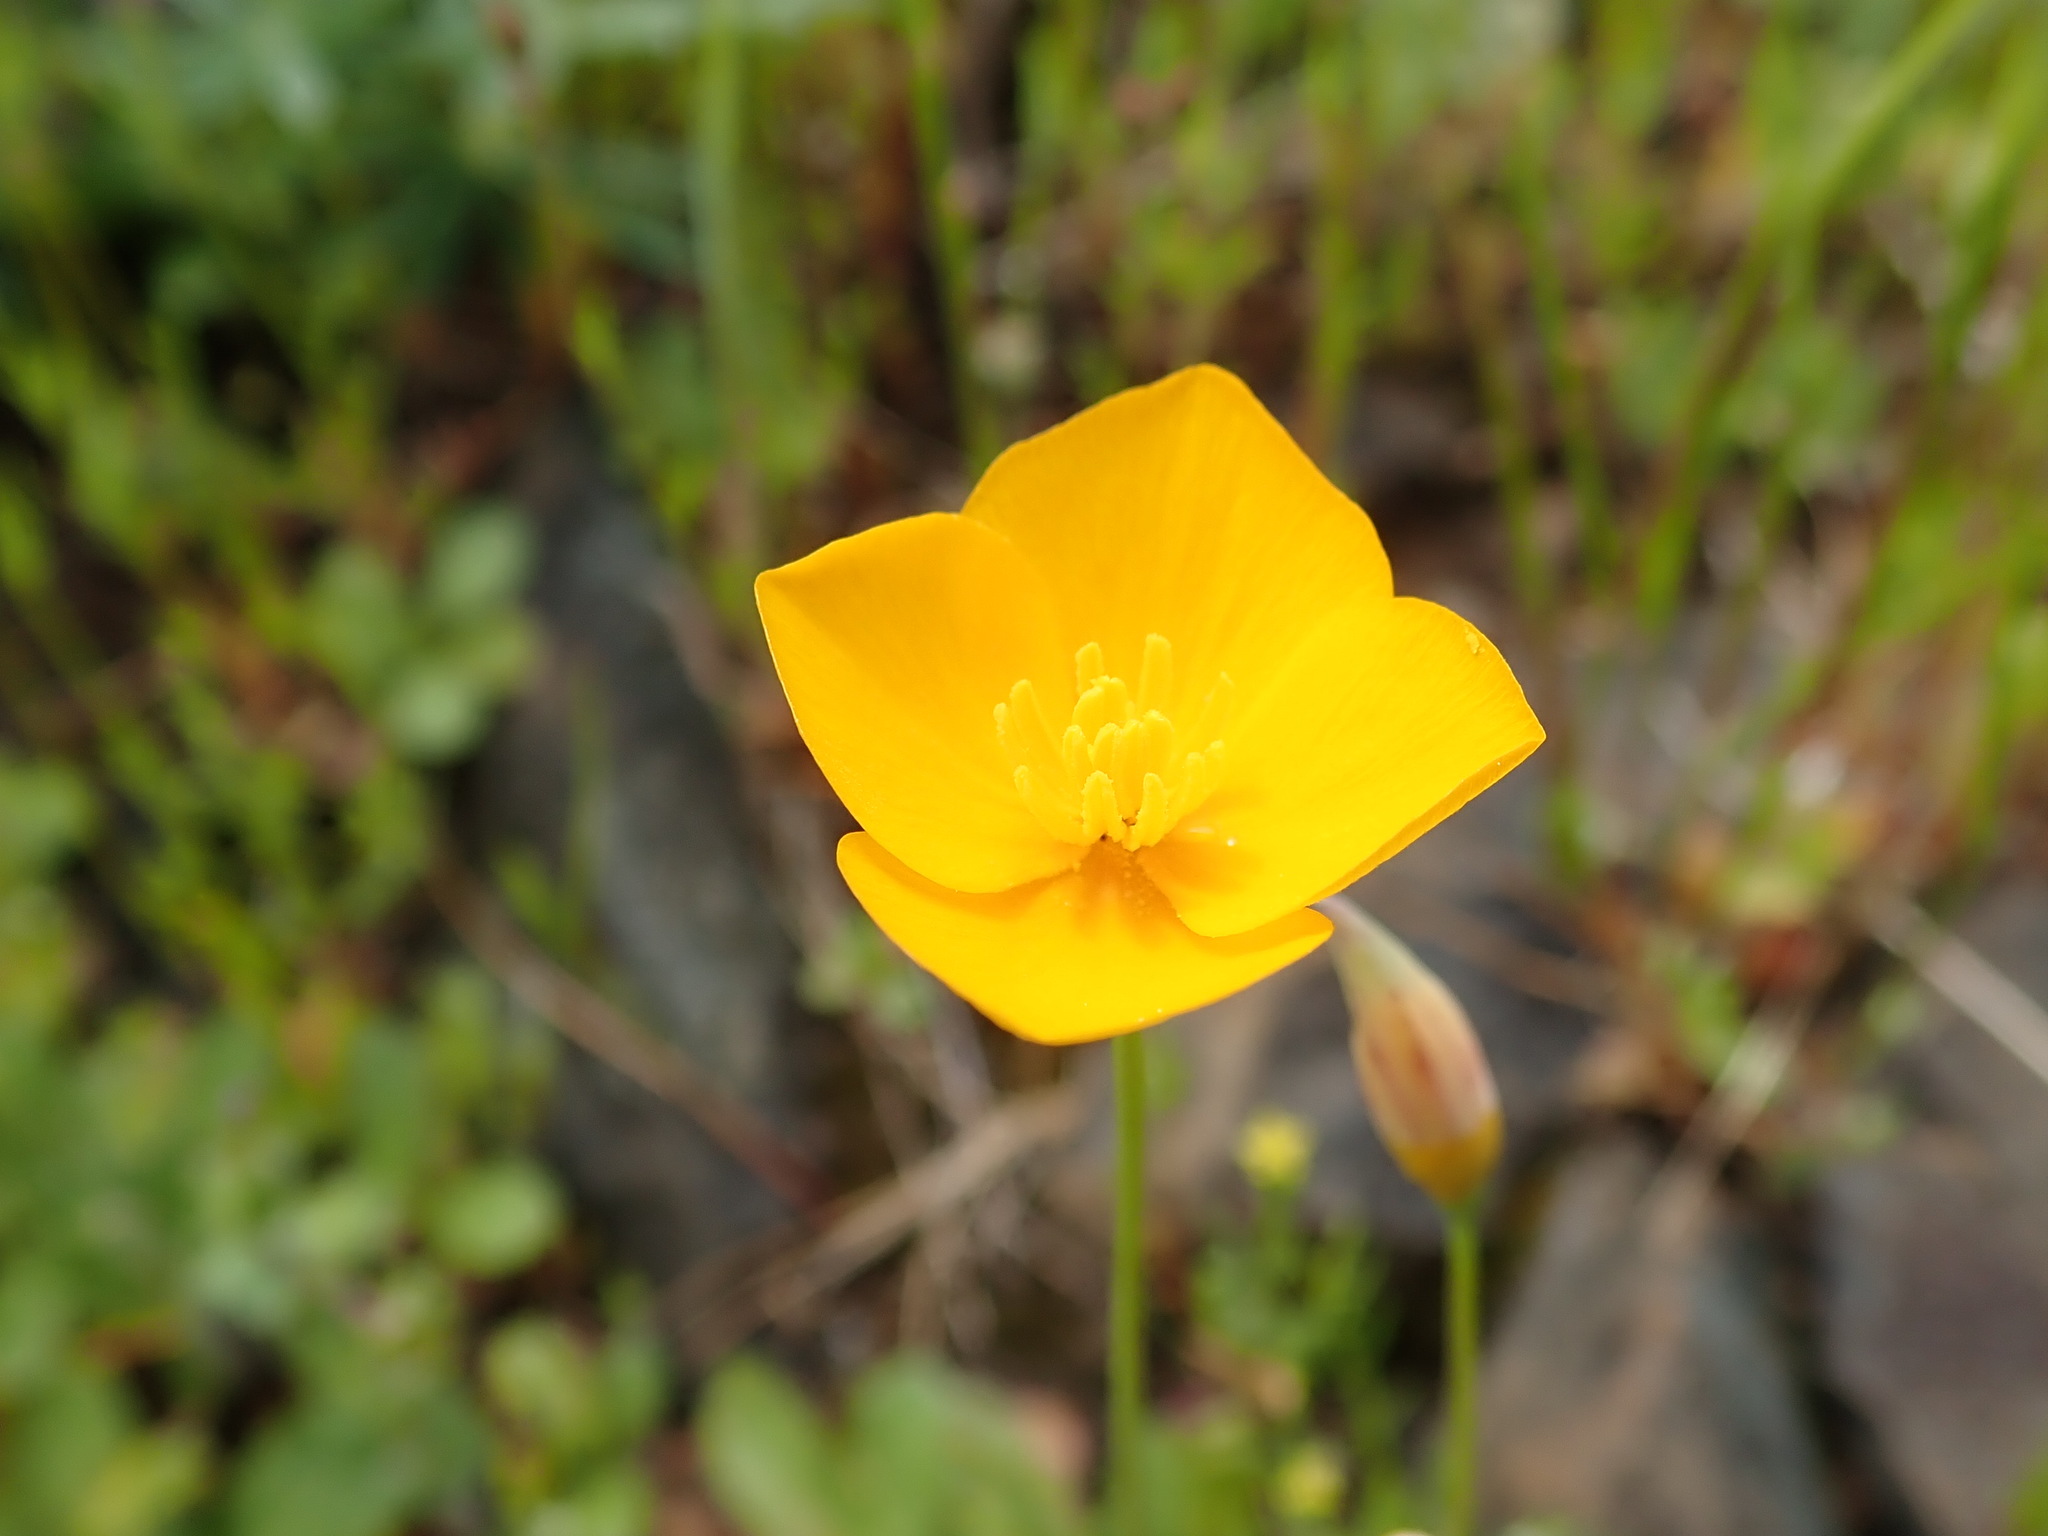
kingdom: Plantae
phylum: Tracheophyta
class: Magnoliopsida
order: Ranunculales
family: Papaveraceae
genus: Eschscholzia
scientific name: Eschscholzia lobbii
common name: Frying-pans
